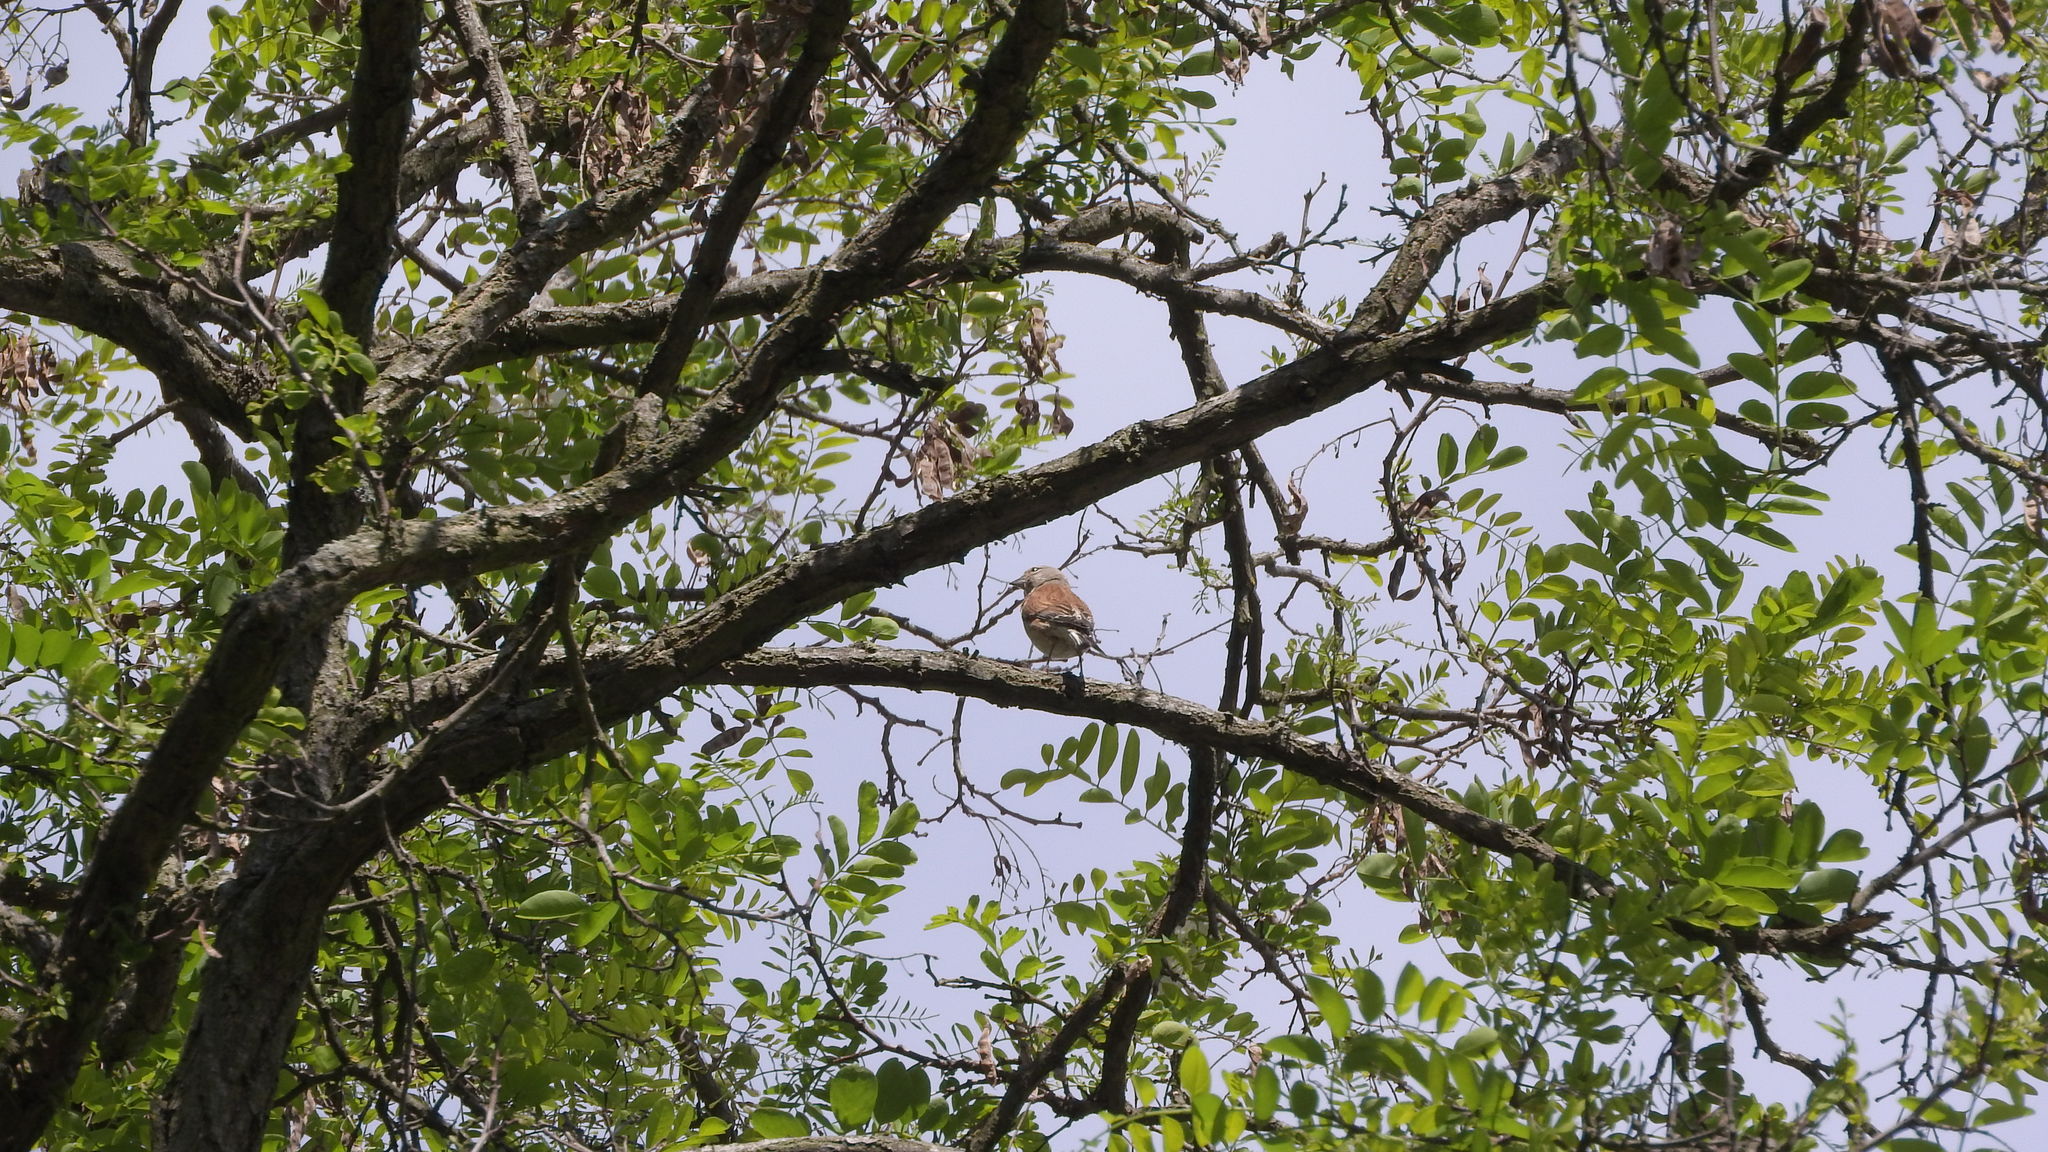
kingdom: Animalia
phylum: Chordata
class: Aves
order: Passeriformes
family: Fringillidae
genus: Linaria
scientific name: Linaria cannabina
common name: Common linnet
